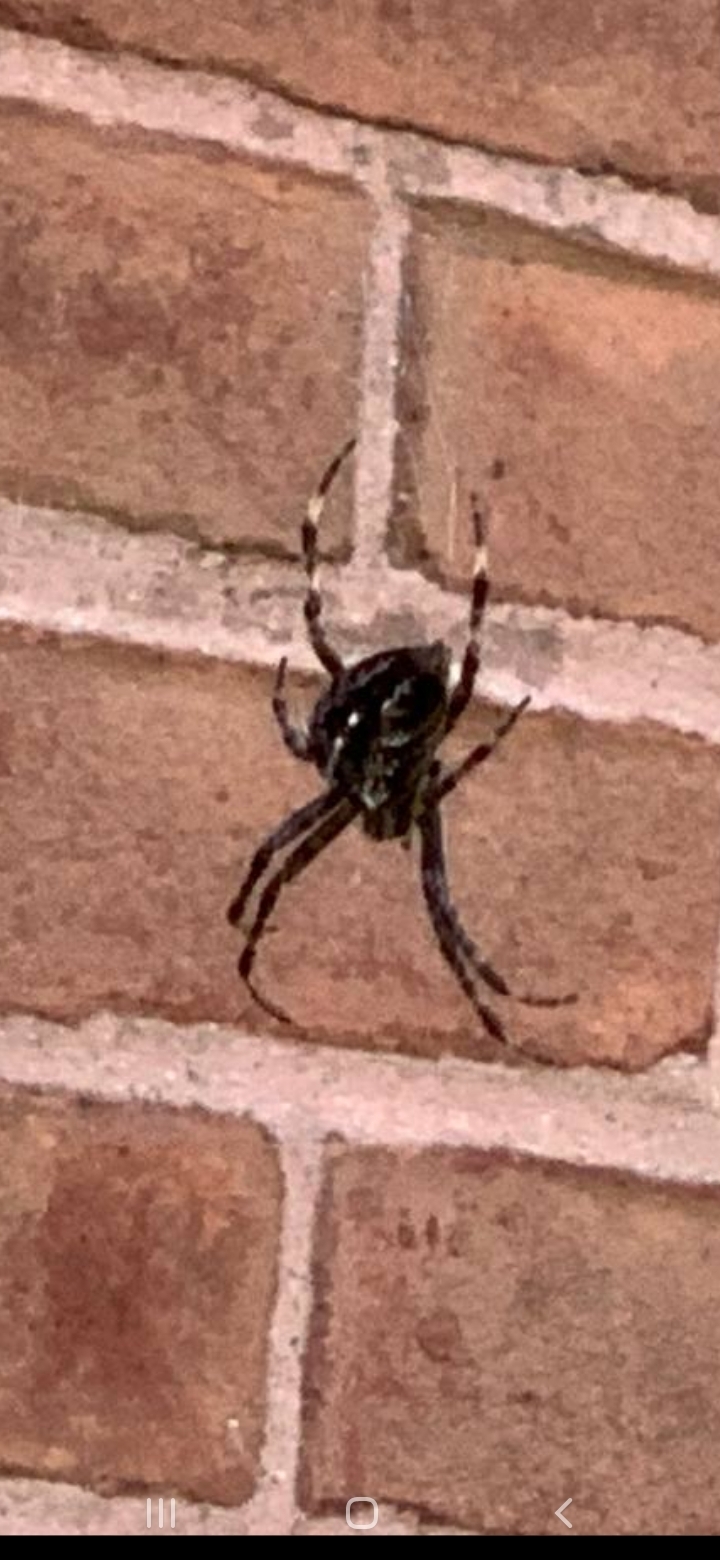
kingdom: Animalia
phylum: Arthropoda
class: Arachnida
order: Araneae
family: Araneidae
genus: Araneus
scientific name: Araneus diadematus
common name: Cross orbweaver
